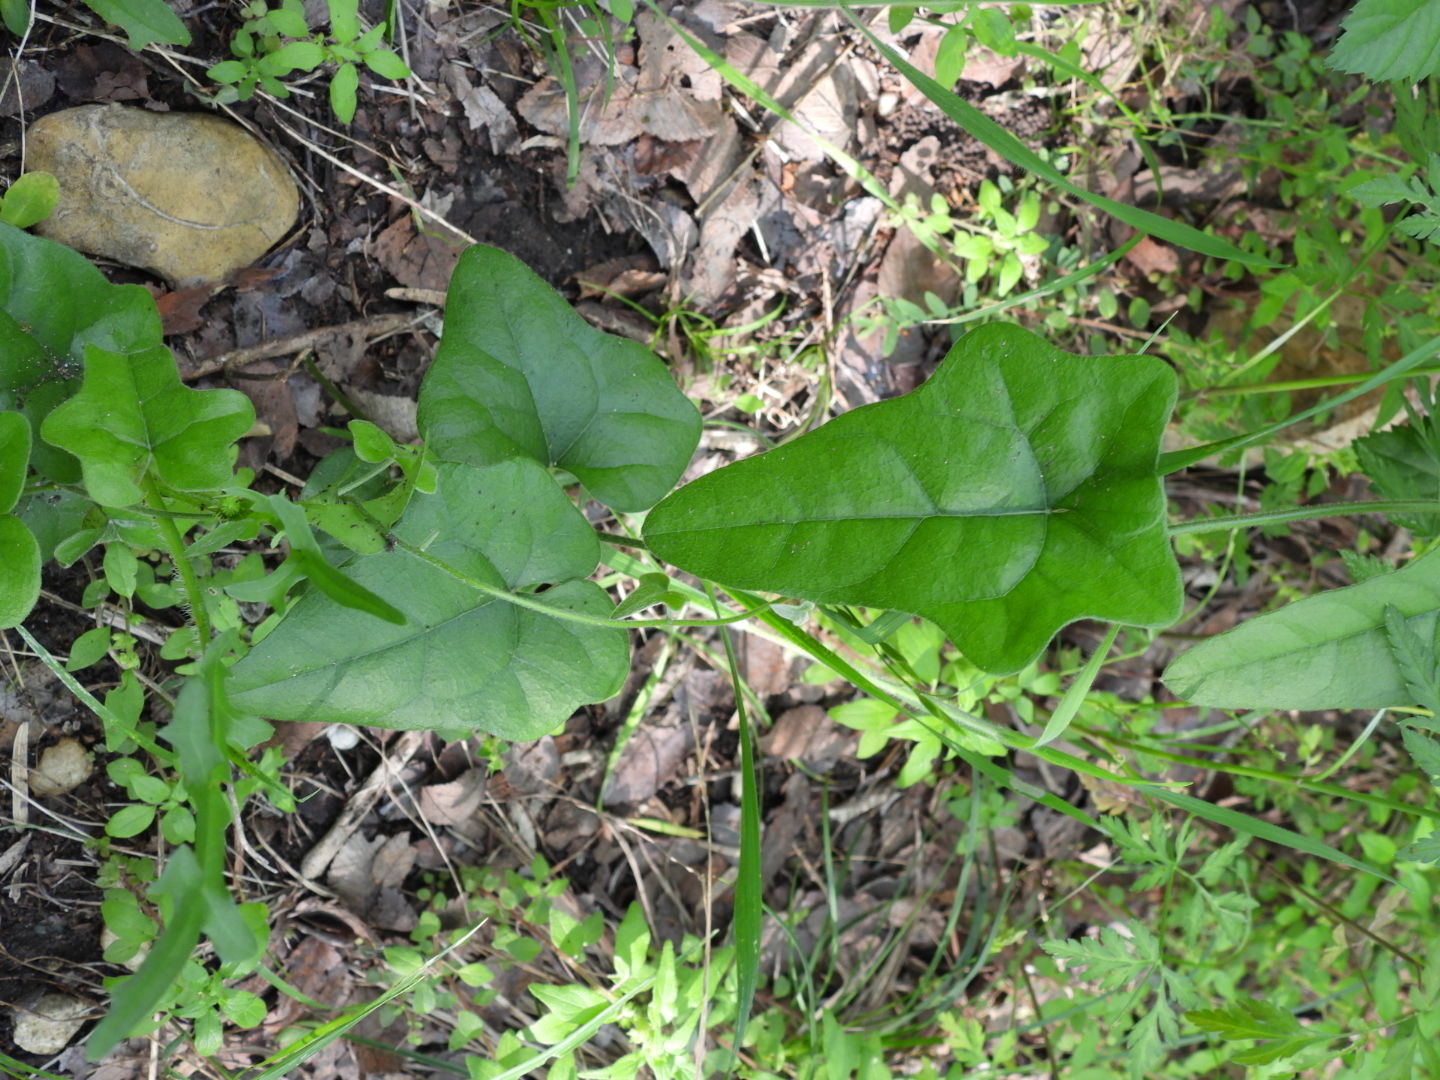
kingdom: Plantae
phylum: Tracheophyta
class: Magnoliopsida
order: Ranunculales
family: Menispermaceae
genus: Cocculus
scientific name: Cocculus carolinus
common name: Carolina moonseed
